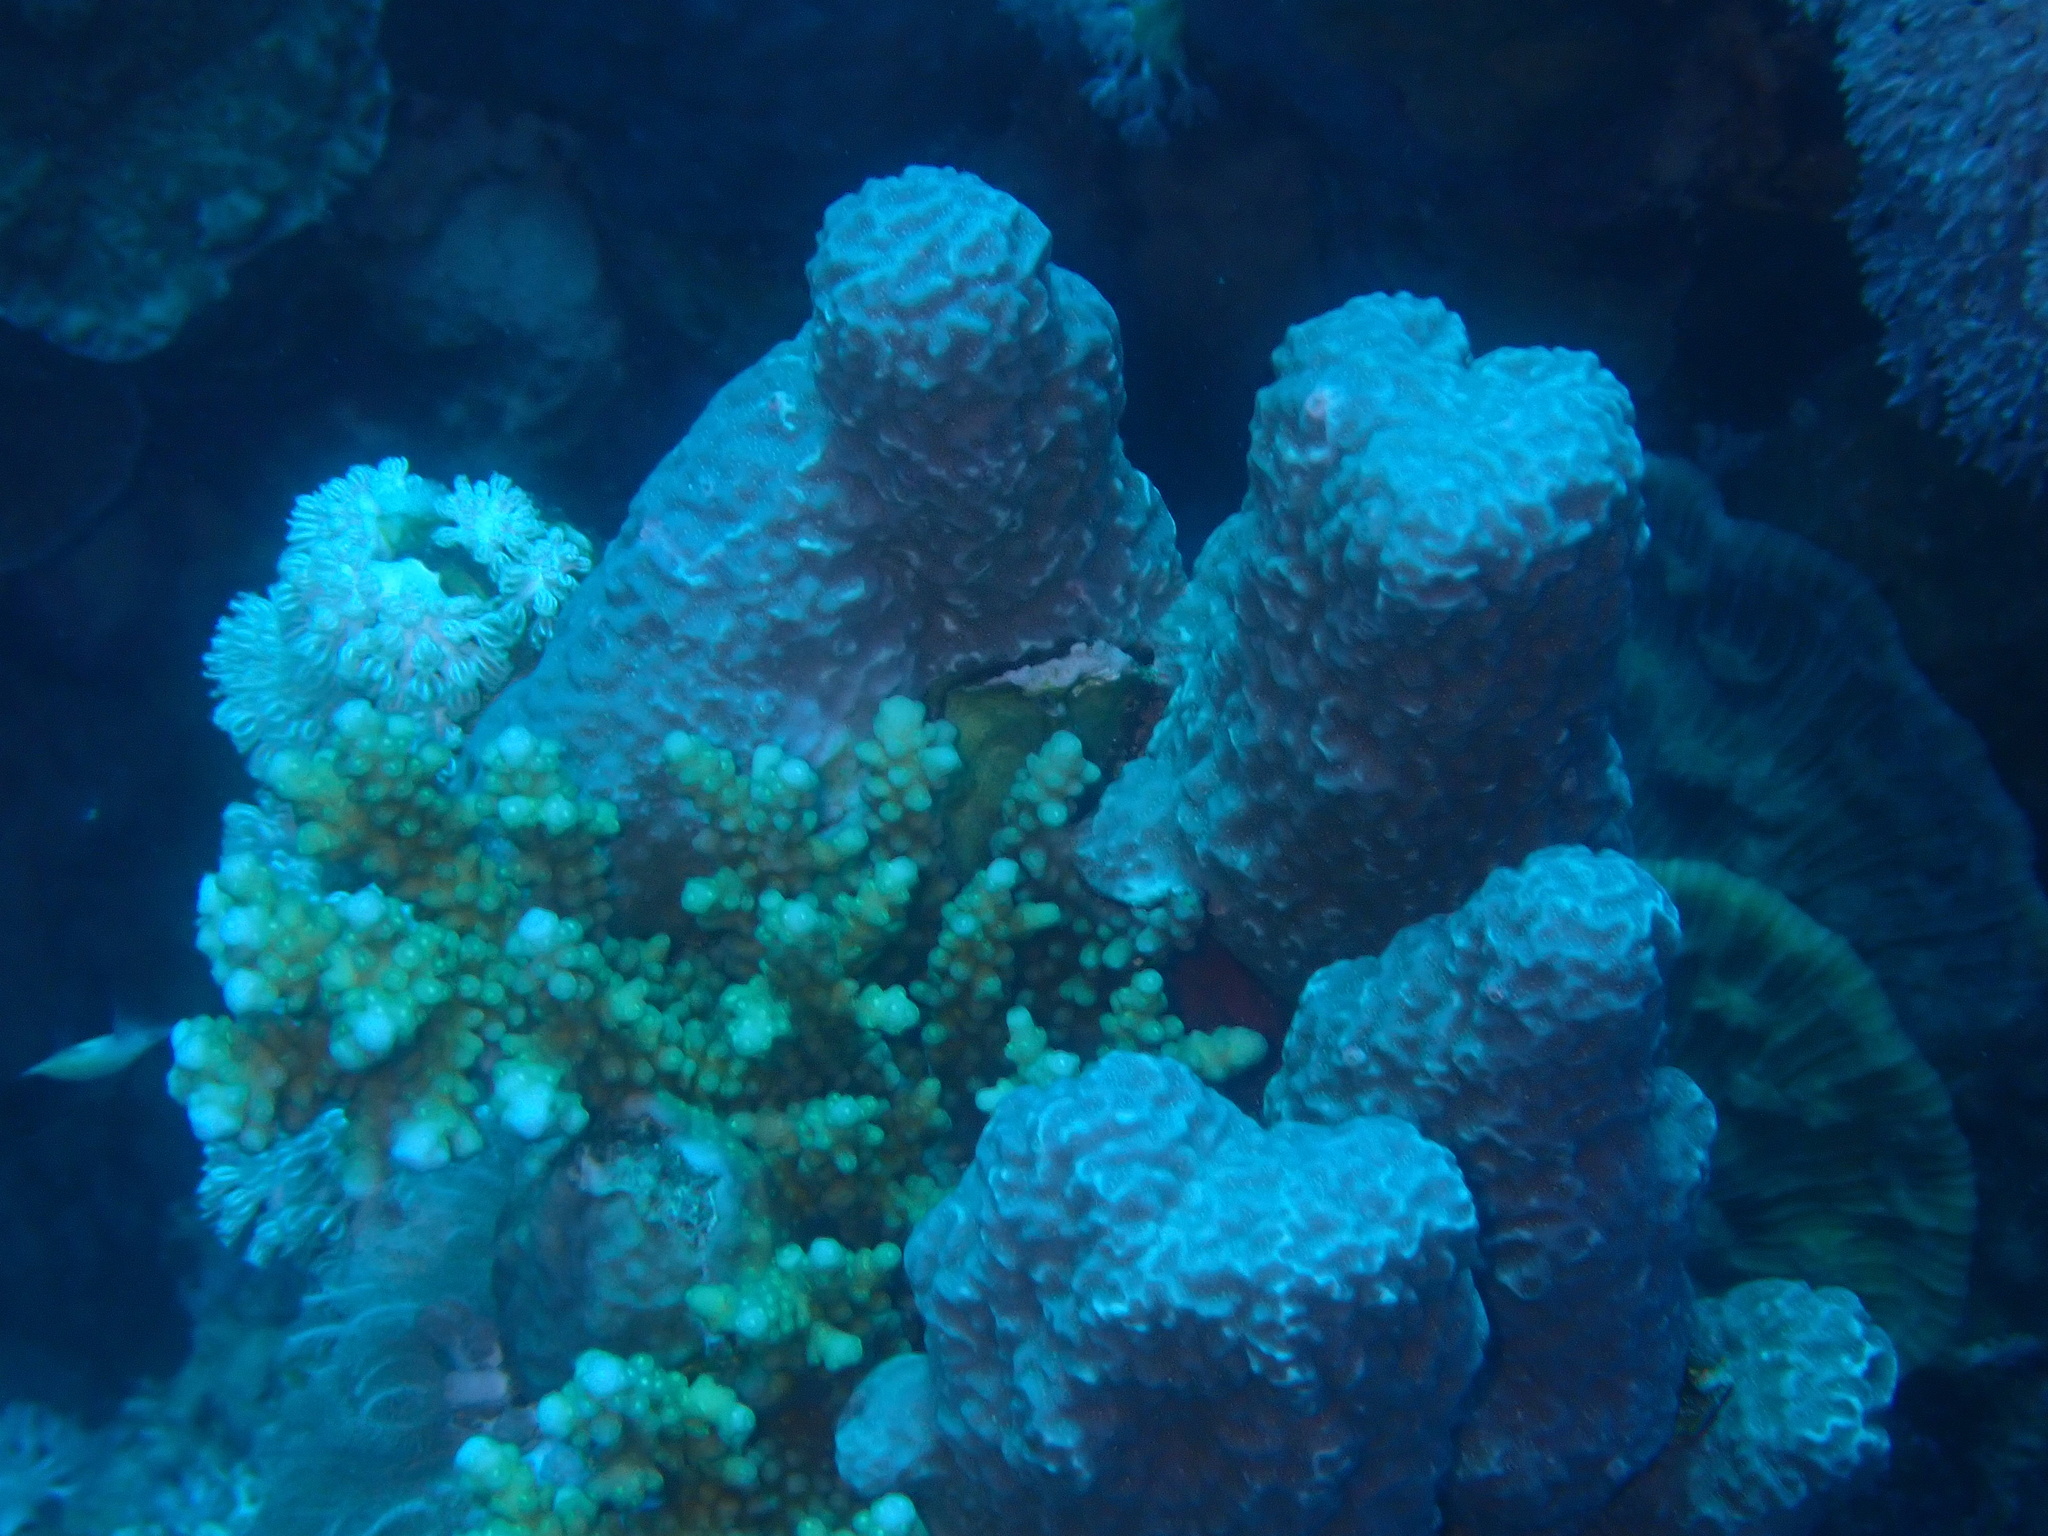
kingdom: Animalia
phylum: Cnidaria
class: Anthozoa
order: Scleractinia
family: Poritidae
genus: Porites
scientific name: Porites rus
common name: Hump coral
